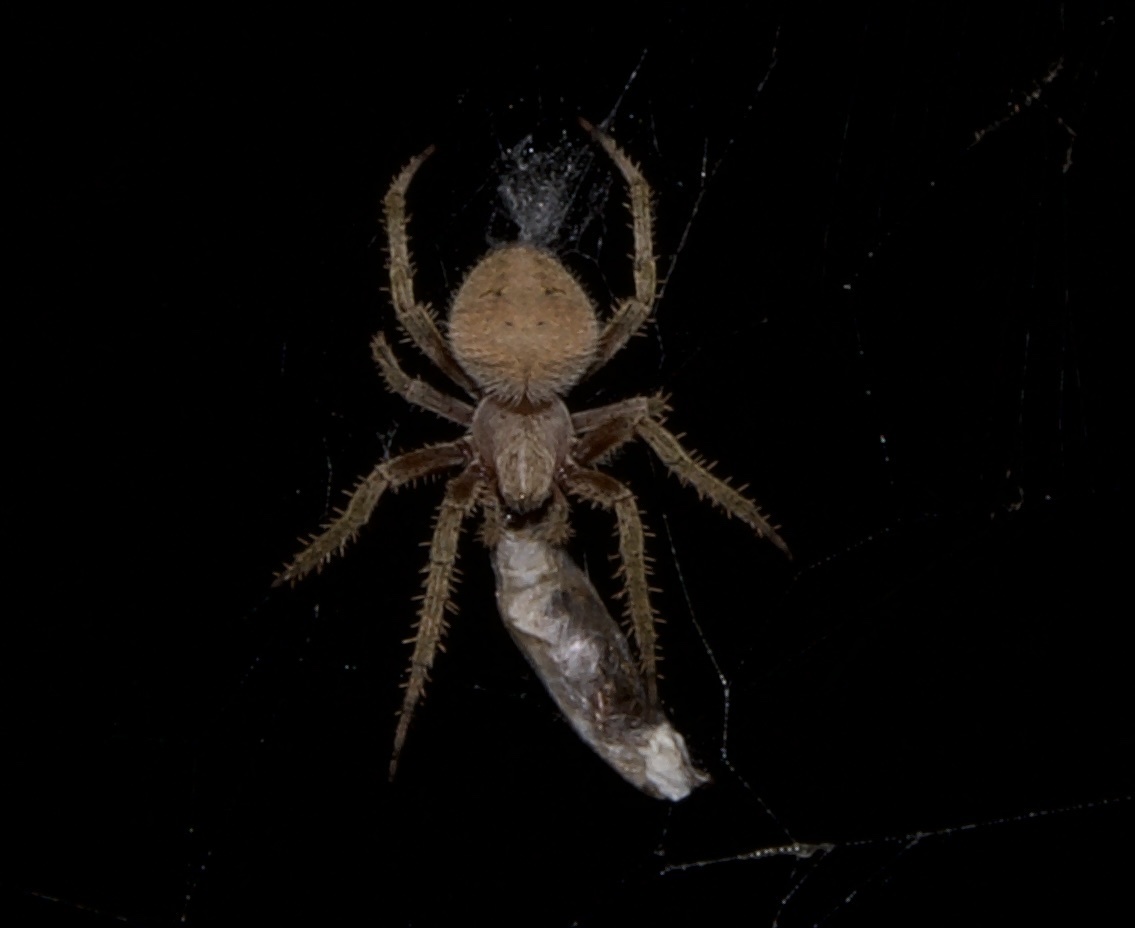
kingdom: Animalia
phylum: Arthropoda
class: Arachnida
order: Araneae
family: Araneidae
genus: Neoscona
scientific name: Neoscona crucifera
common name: Spotted orbweaver
